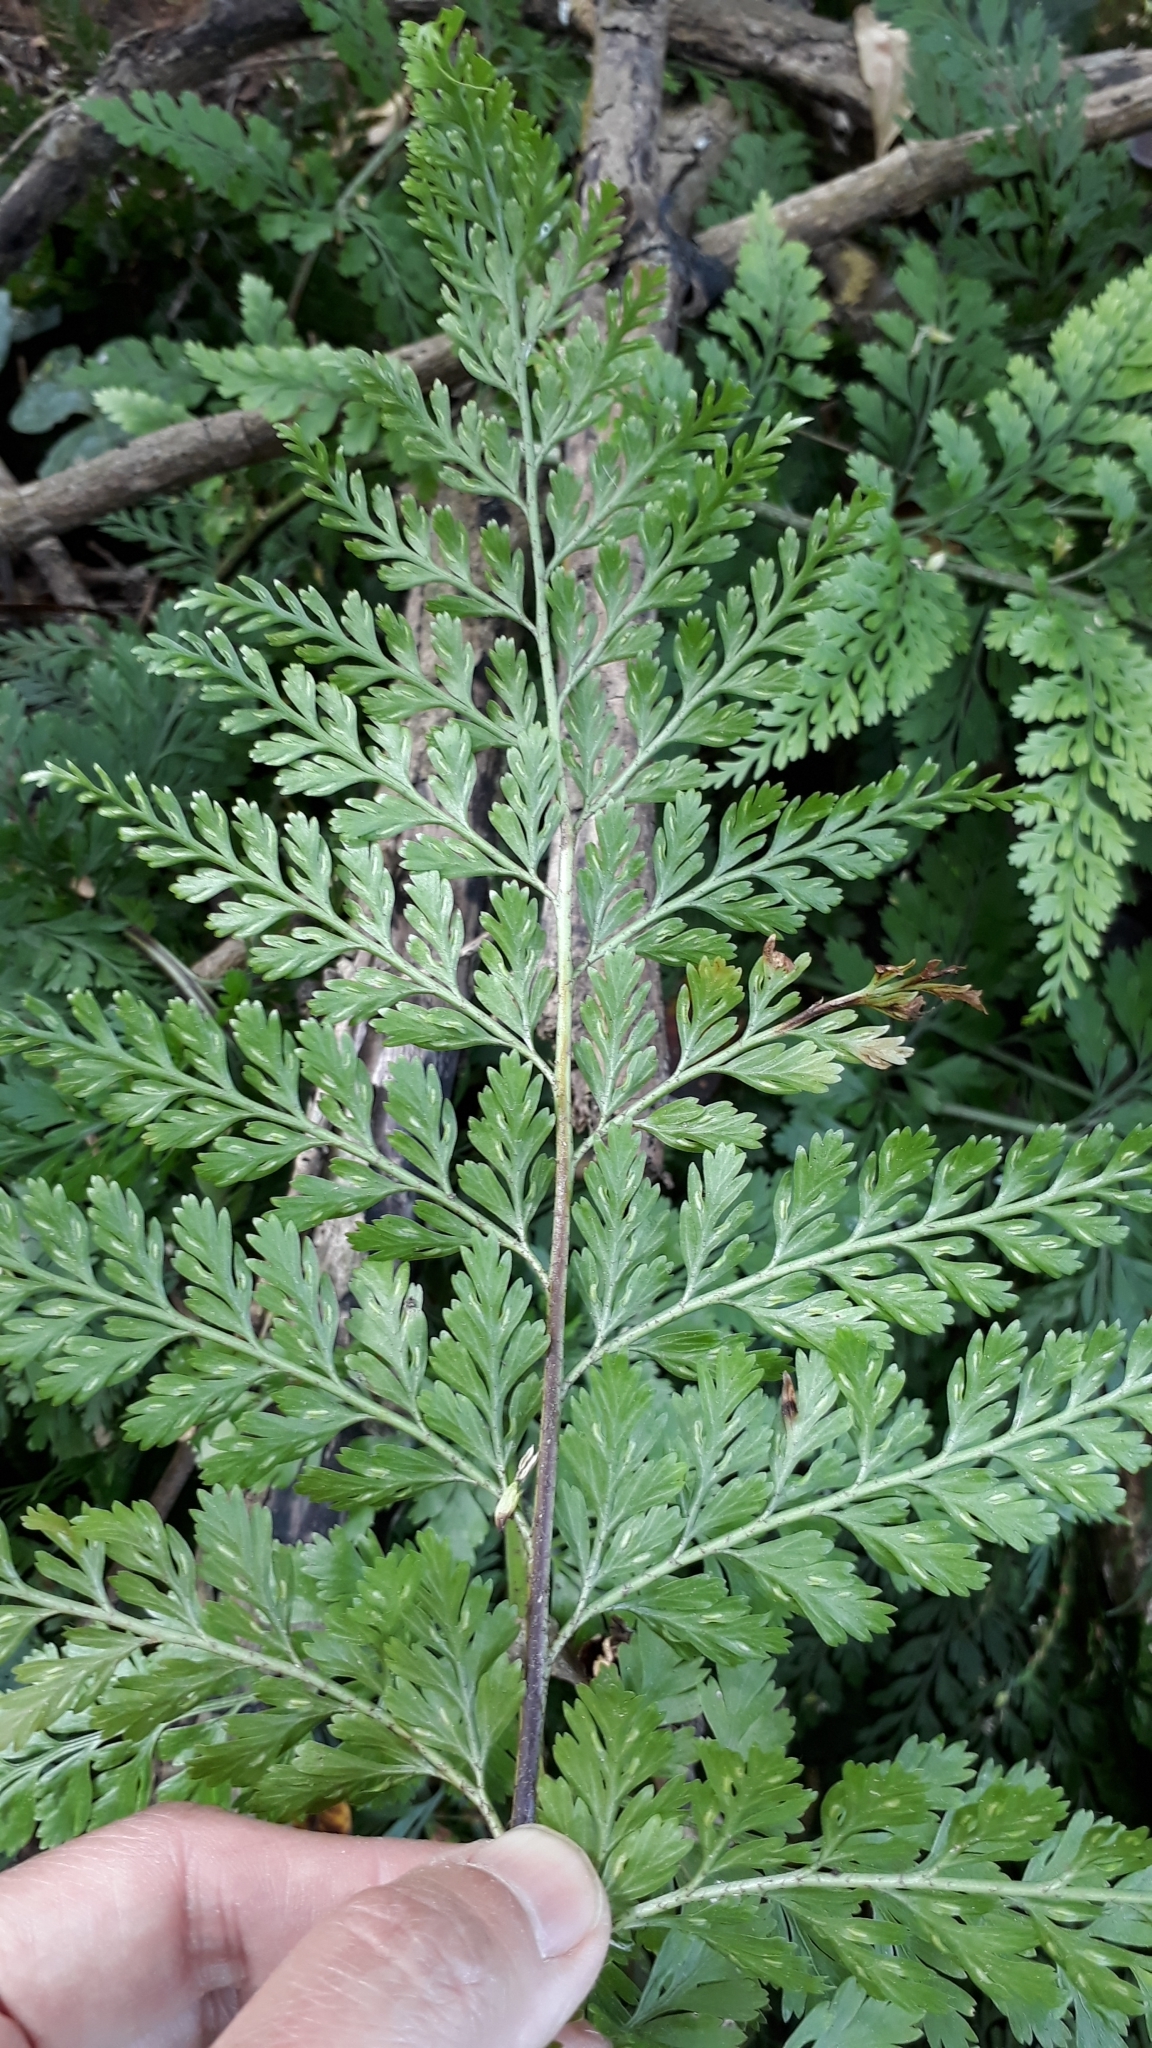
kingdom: Plantae
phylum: Tracheophyta
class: Polypodiopsida
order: Polypodiales
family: Aspleniaceae
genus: Asplenium
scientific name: Asplenium
